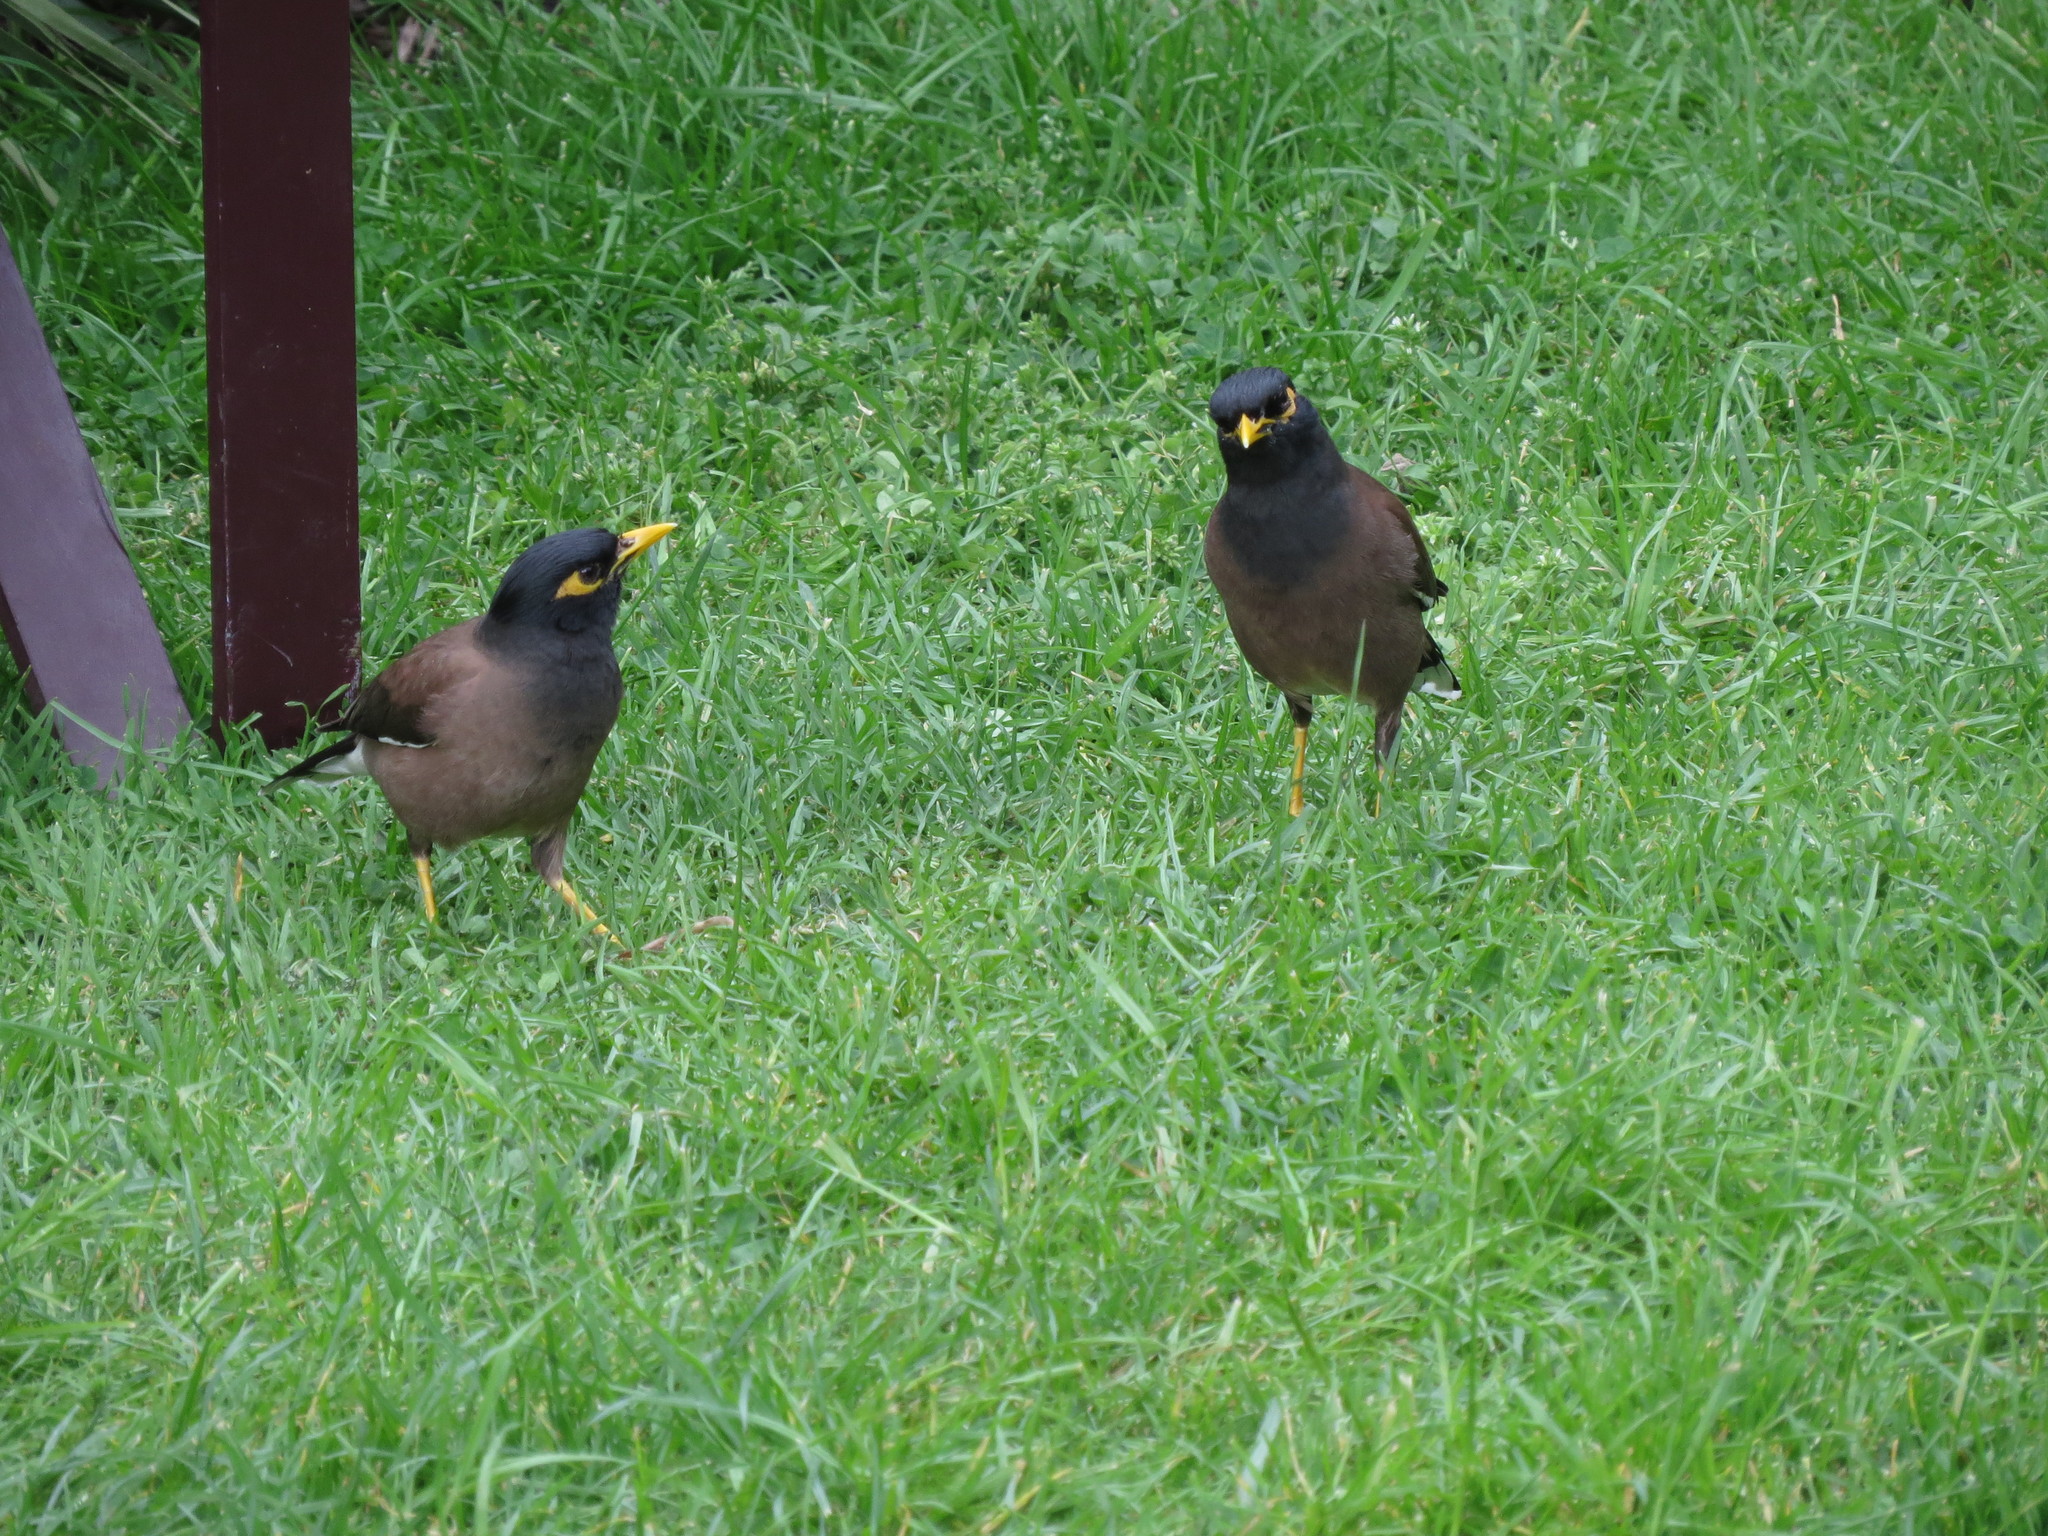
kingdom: Animalia
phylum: Chordata
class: Aves
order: Passeriformes
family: Sturnidae
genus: Acridotheres
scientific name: Acridotheres tristis
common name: Common myna
